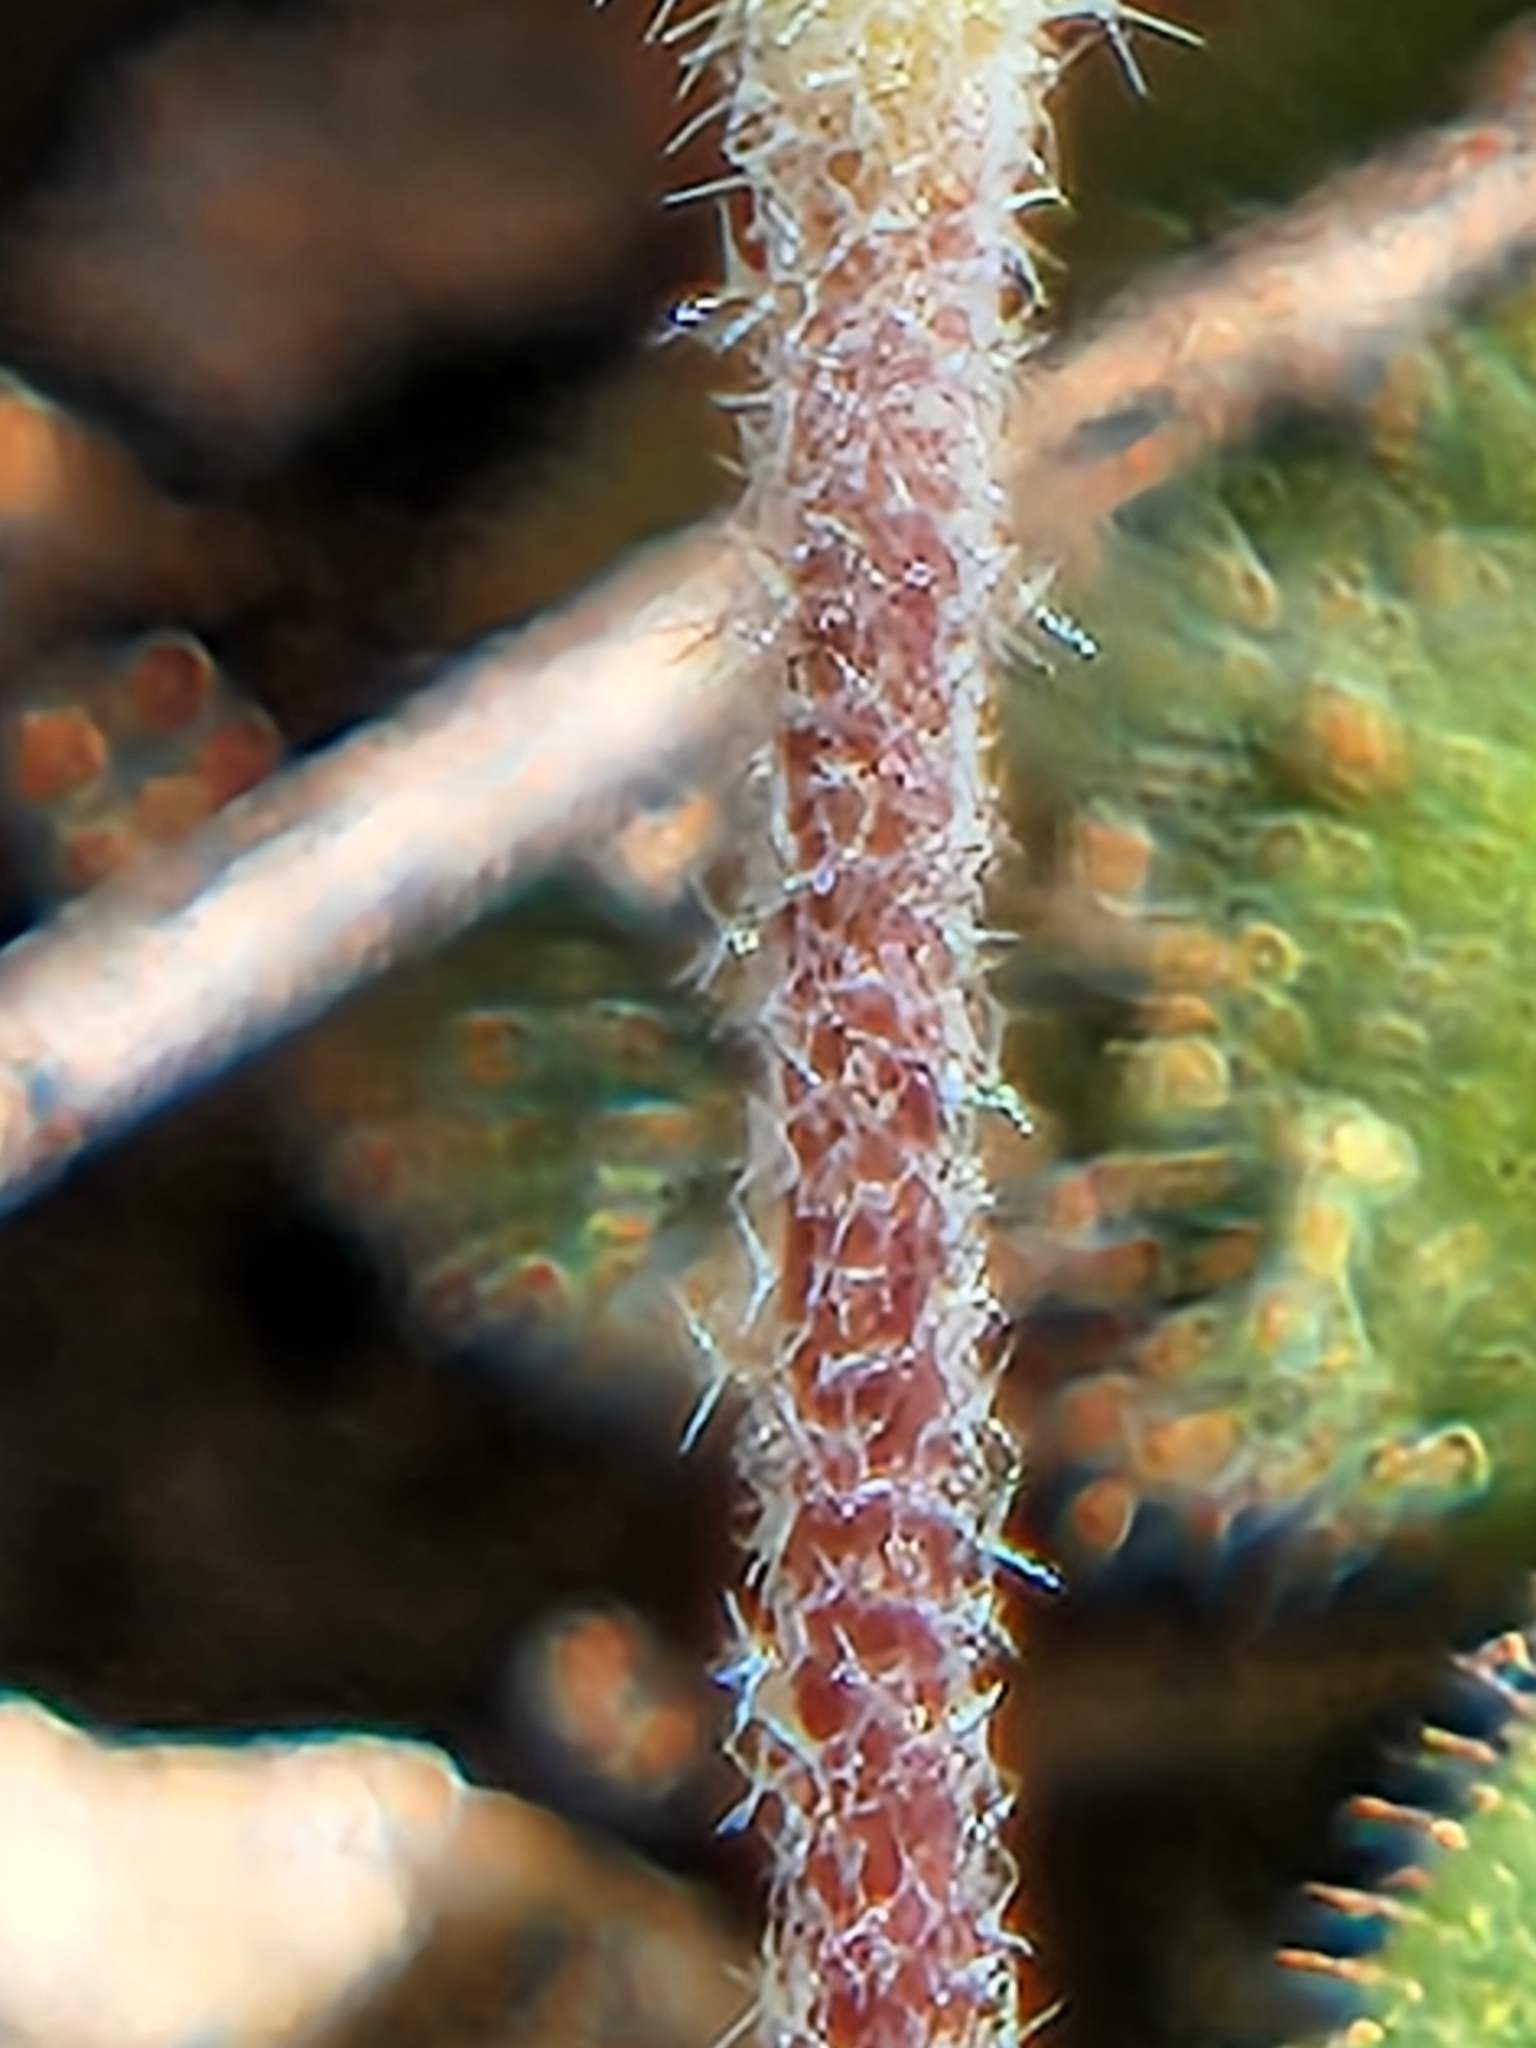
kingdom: Plantae
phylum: Tracheophyta
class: Magnoliopsida
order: Brassicales
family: Brassicaceae
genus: Tomostima
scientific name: Tomostima cuneifolia
